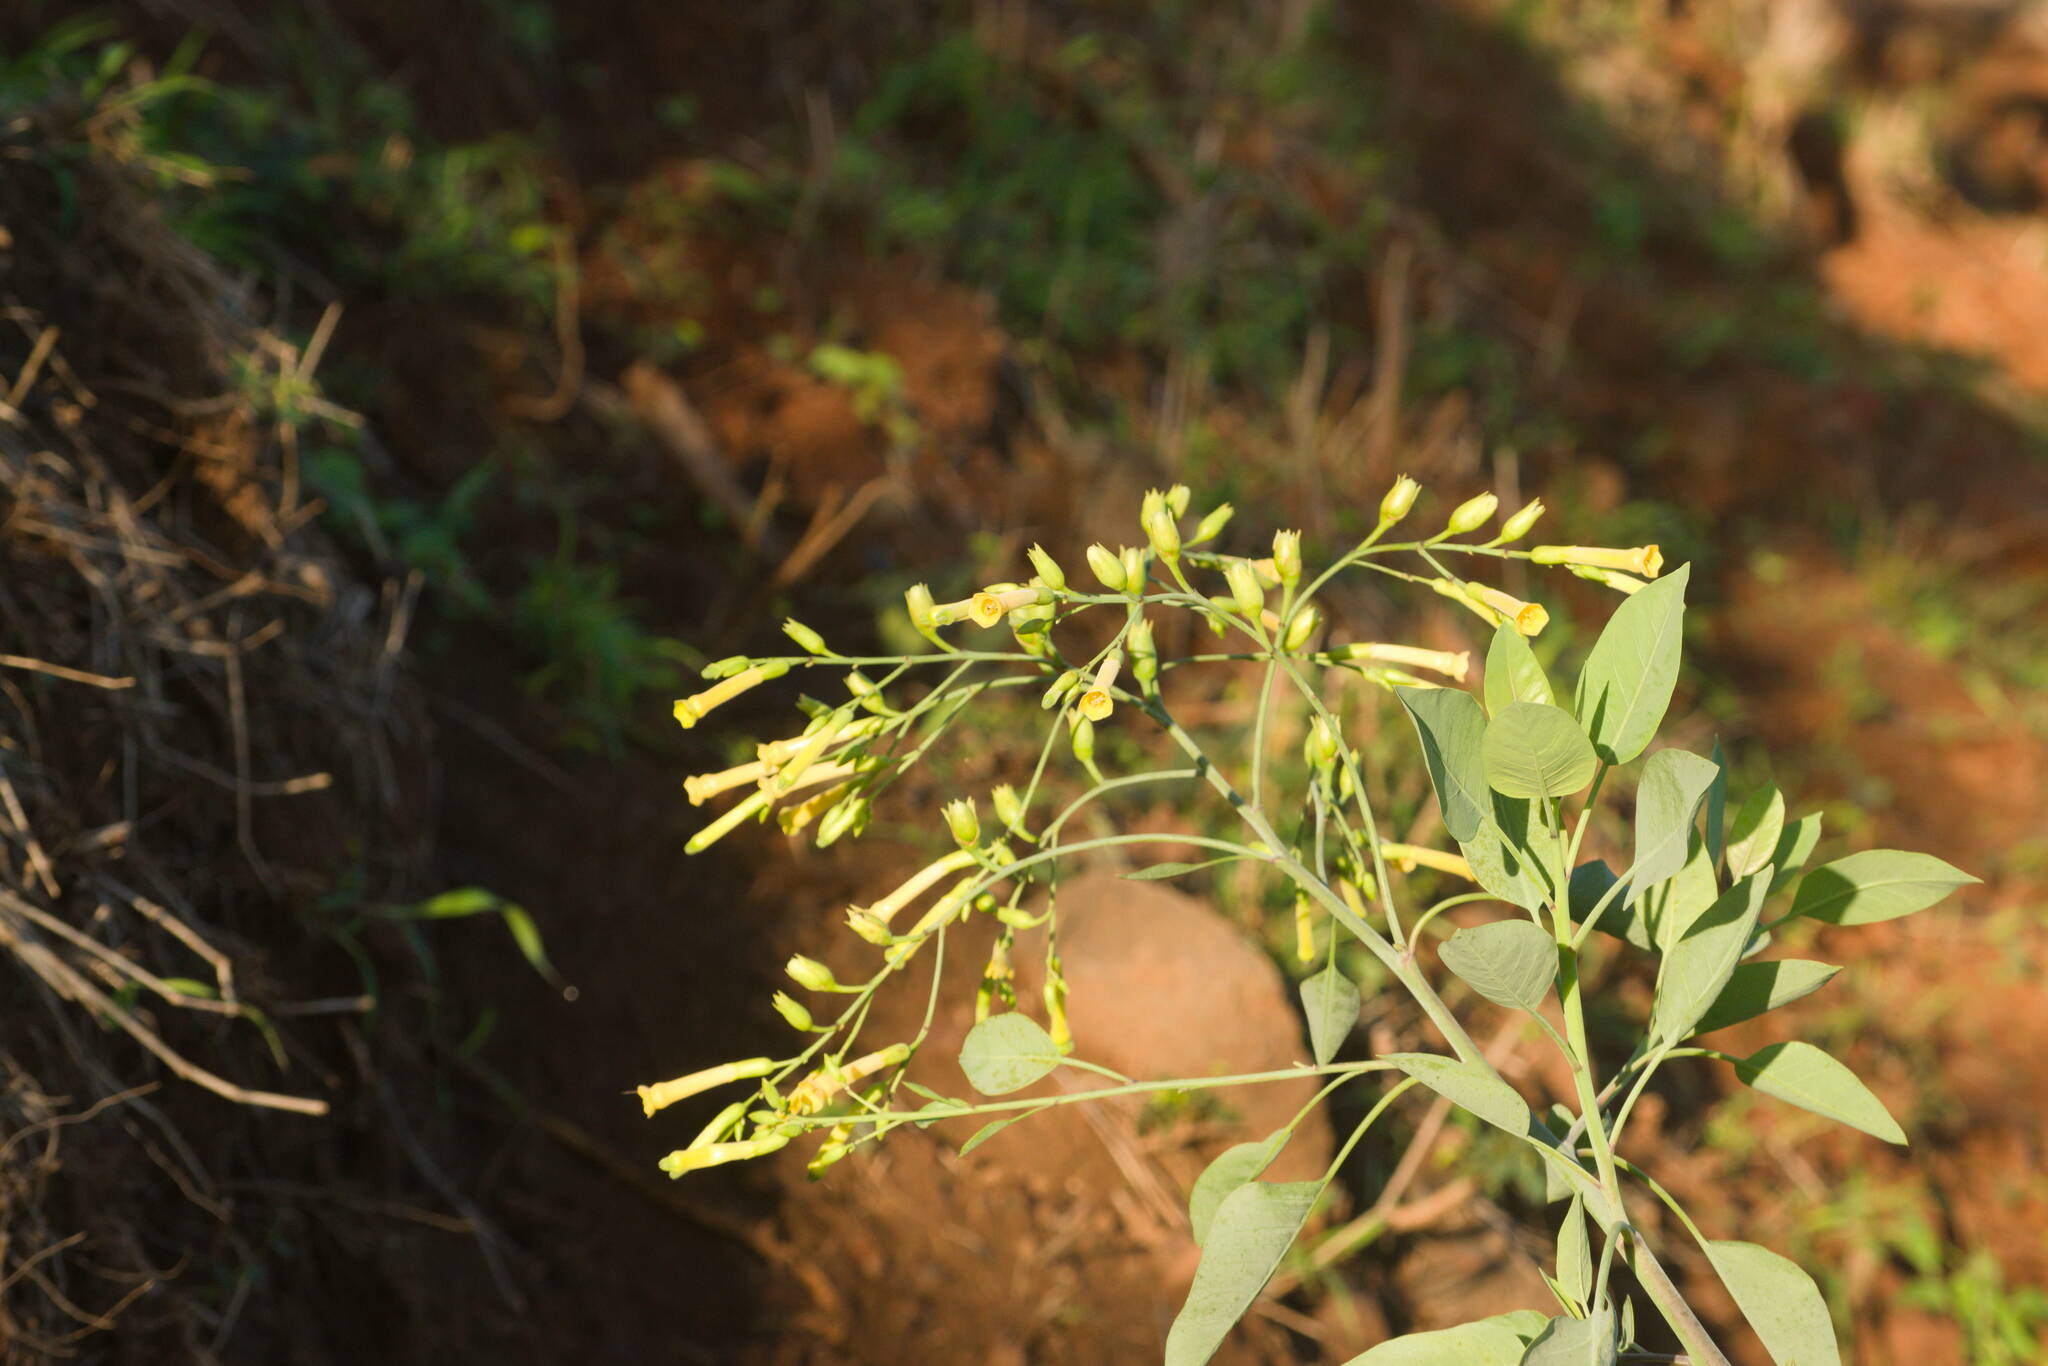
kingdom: Plantae
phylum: Tracheophyta
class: Magnoliopsida
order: Solanales
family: Solanaceae
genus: Nicotiana
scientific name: Nicotiana glauca
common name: Tree tobacco
